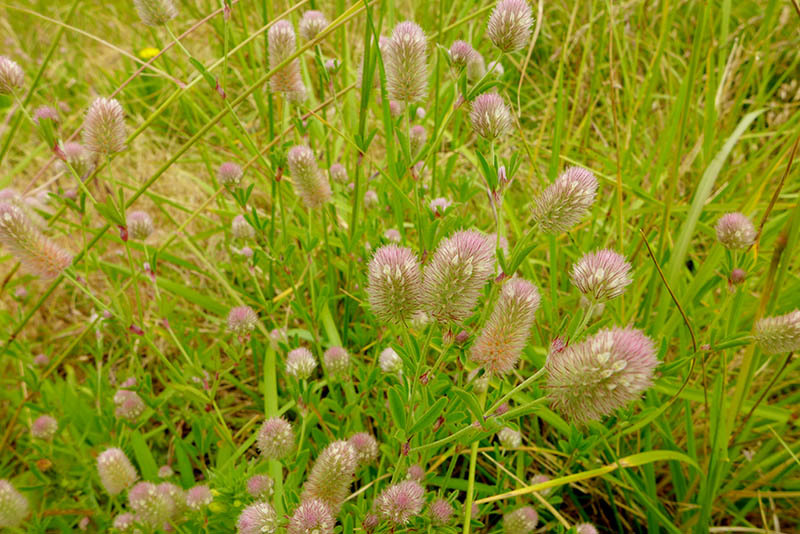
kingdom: Plantae
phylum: Tracheophyta
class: Magnoliopsida
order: Fabales
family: Fabaceae
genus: Trifolium
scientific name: Trifolium arvense
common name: Hare's-foot clover
